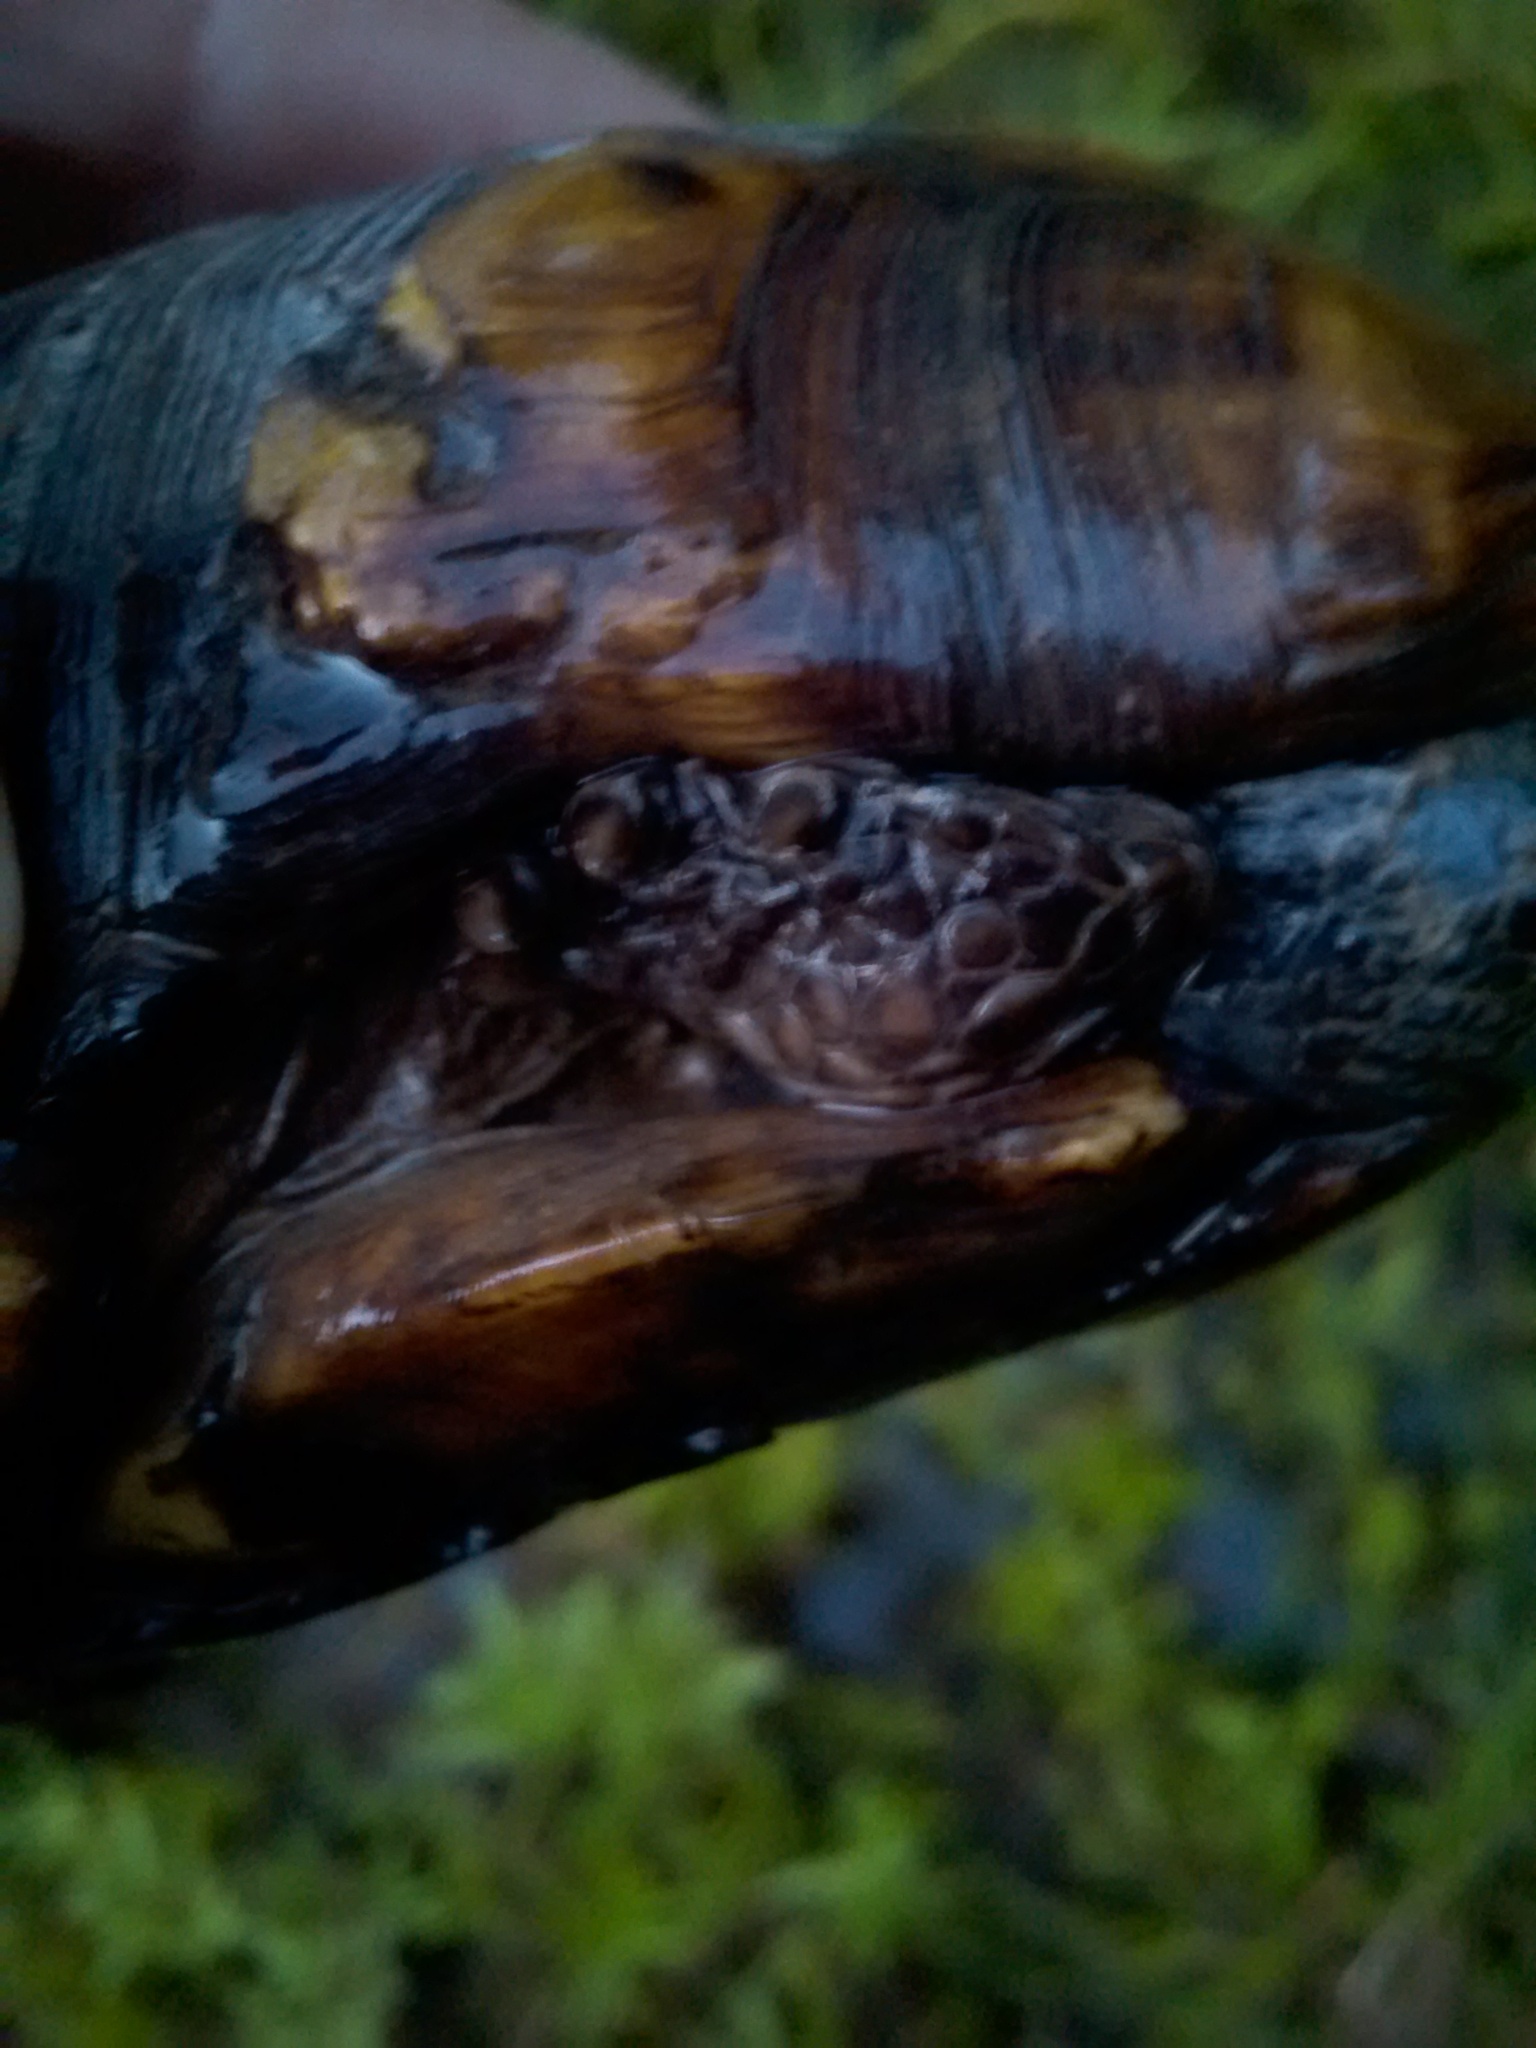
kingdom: Animalia
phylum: Chordata
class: Testudines
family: Emydidae
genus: Terrapene
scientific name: Terrapene carolina
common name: Common box turtle
